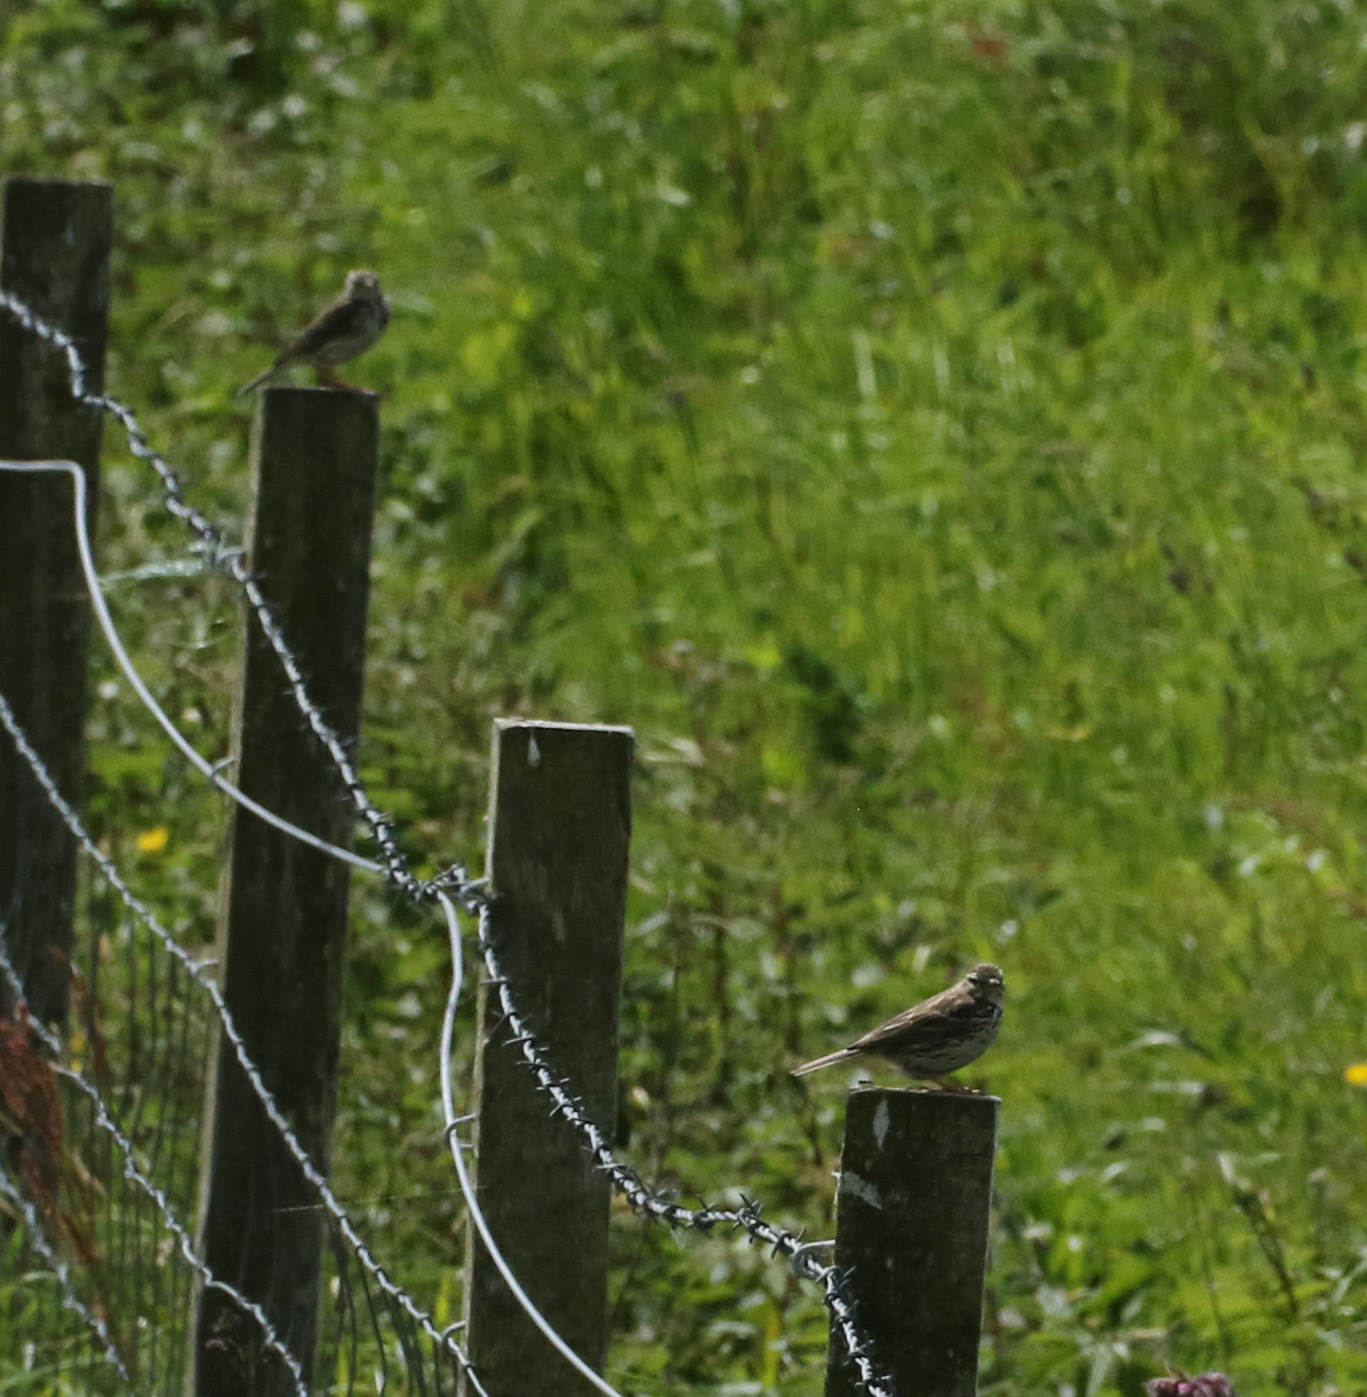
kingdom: Animalia
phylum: Chordata
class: Aves
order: Passeriformes
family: Motacillidae
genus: Anthus
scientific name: Anthus pratensis
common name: Meadow pipit
